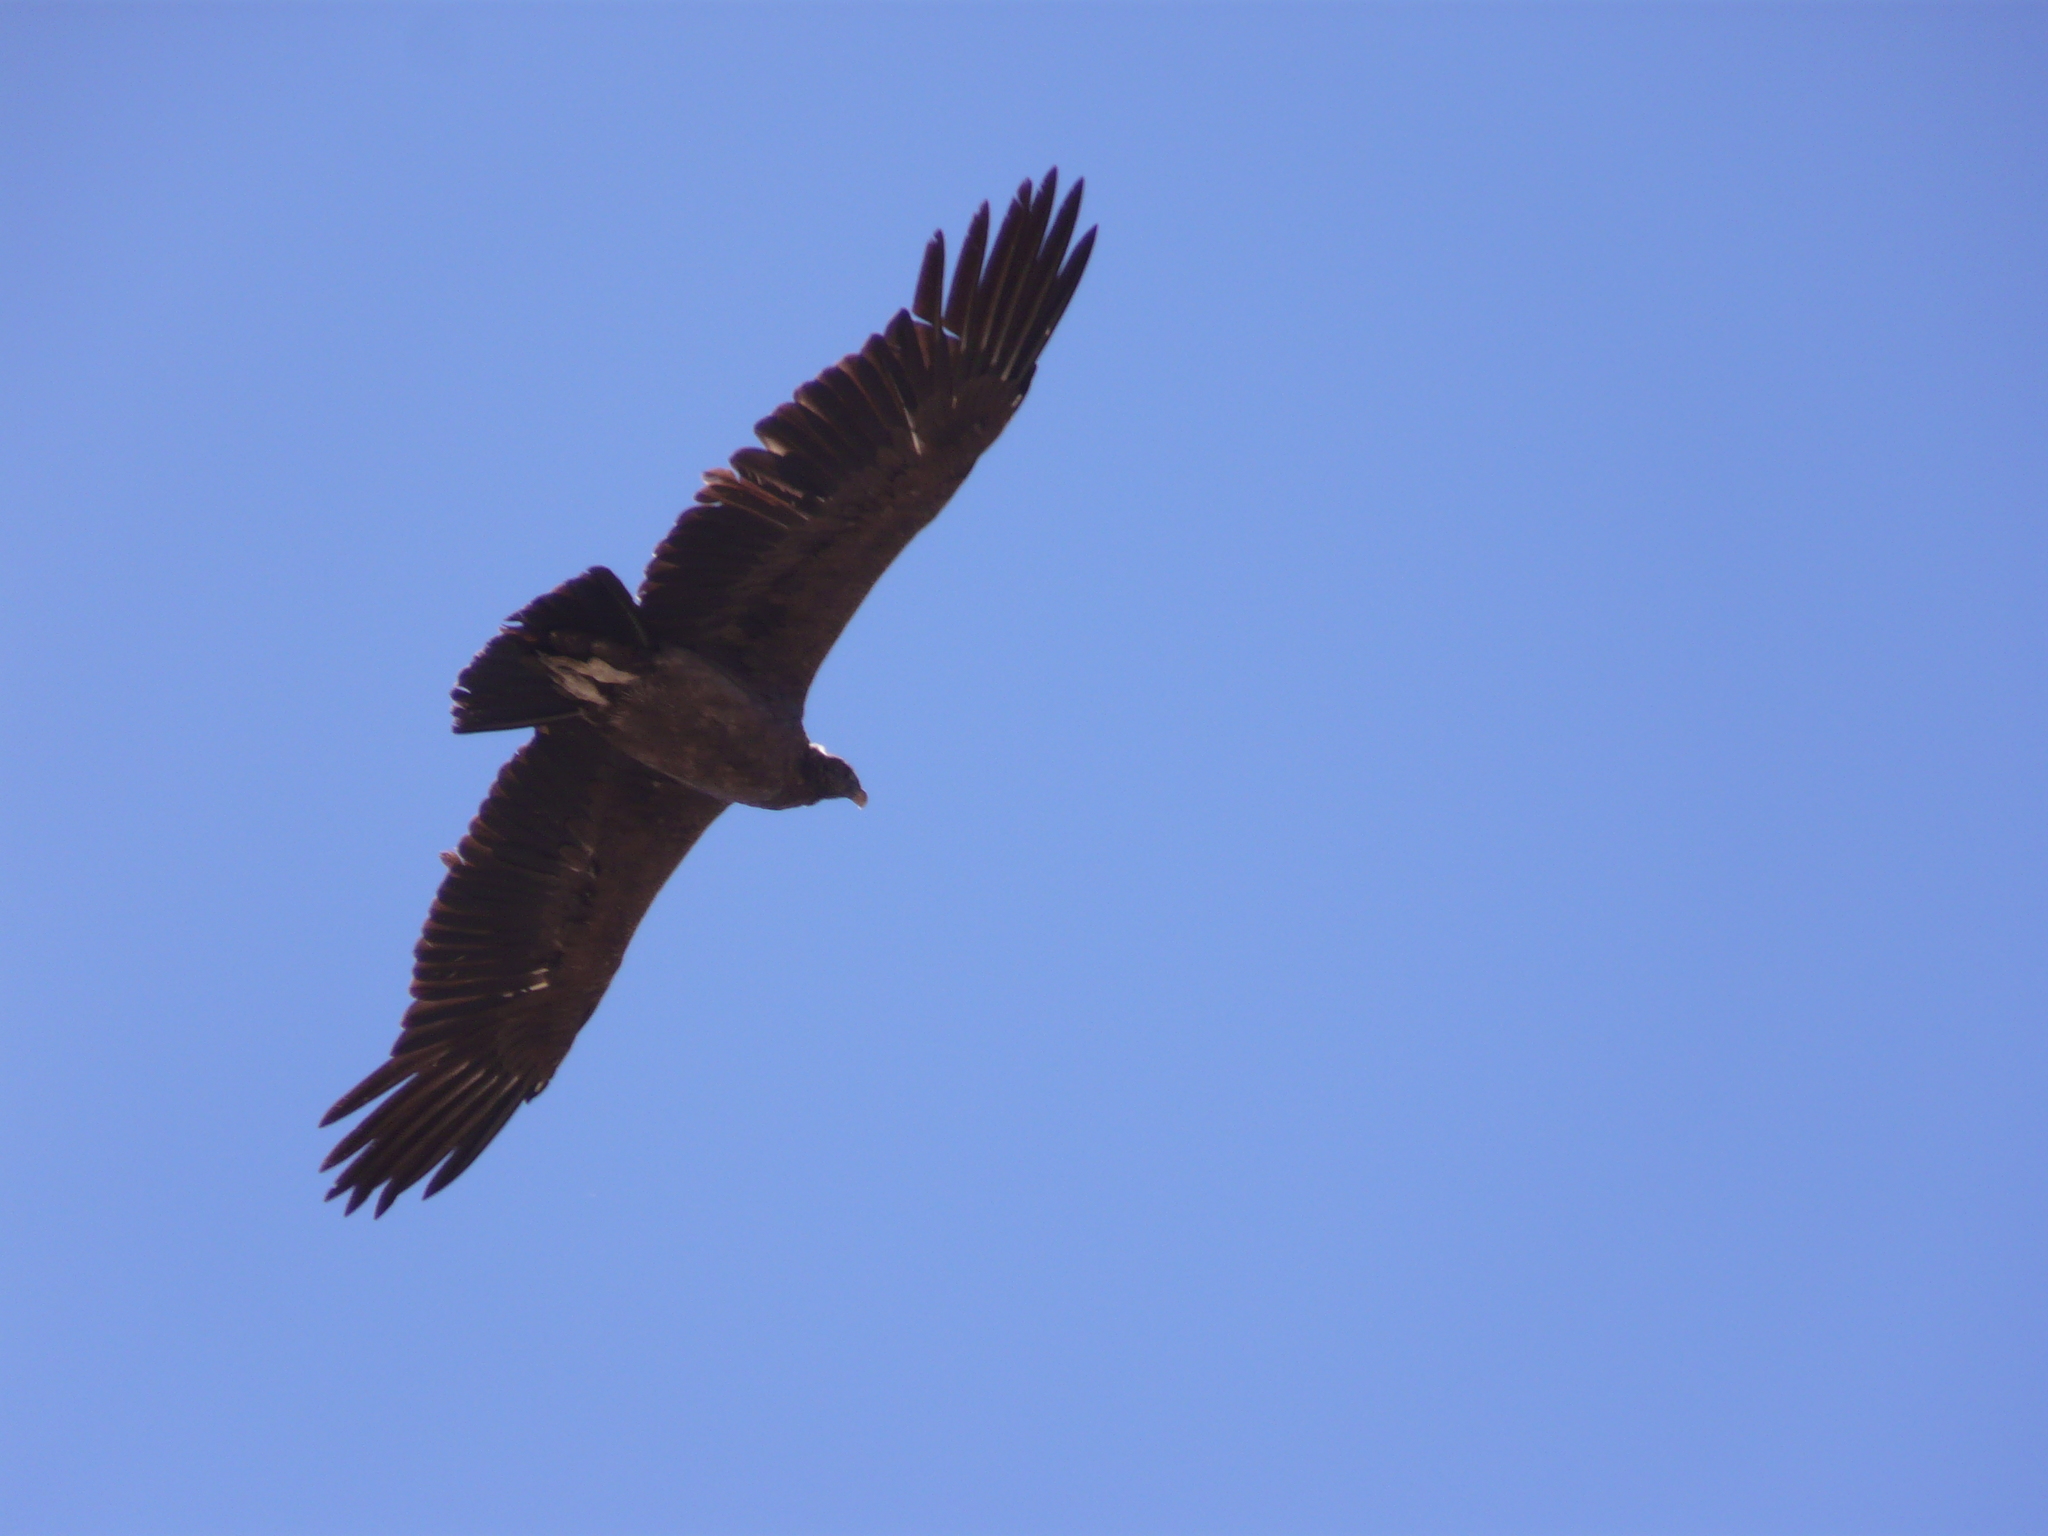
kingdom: Animalia
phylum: Chordata
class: Aves
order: Accipitriformes
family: Cathartidae
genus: Vultur
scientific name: Vultur gryphus
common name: Andean condor
